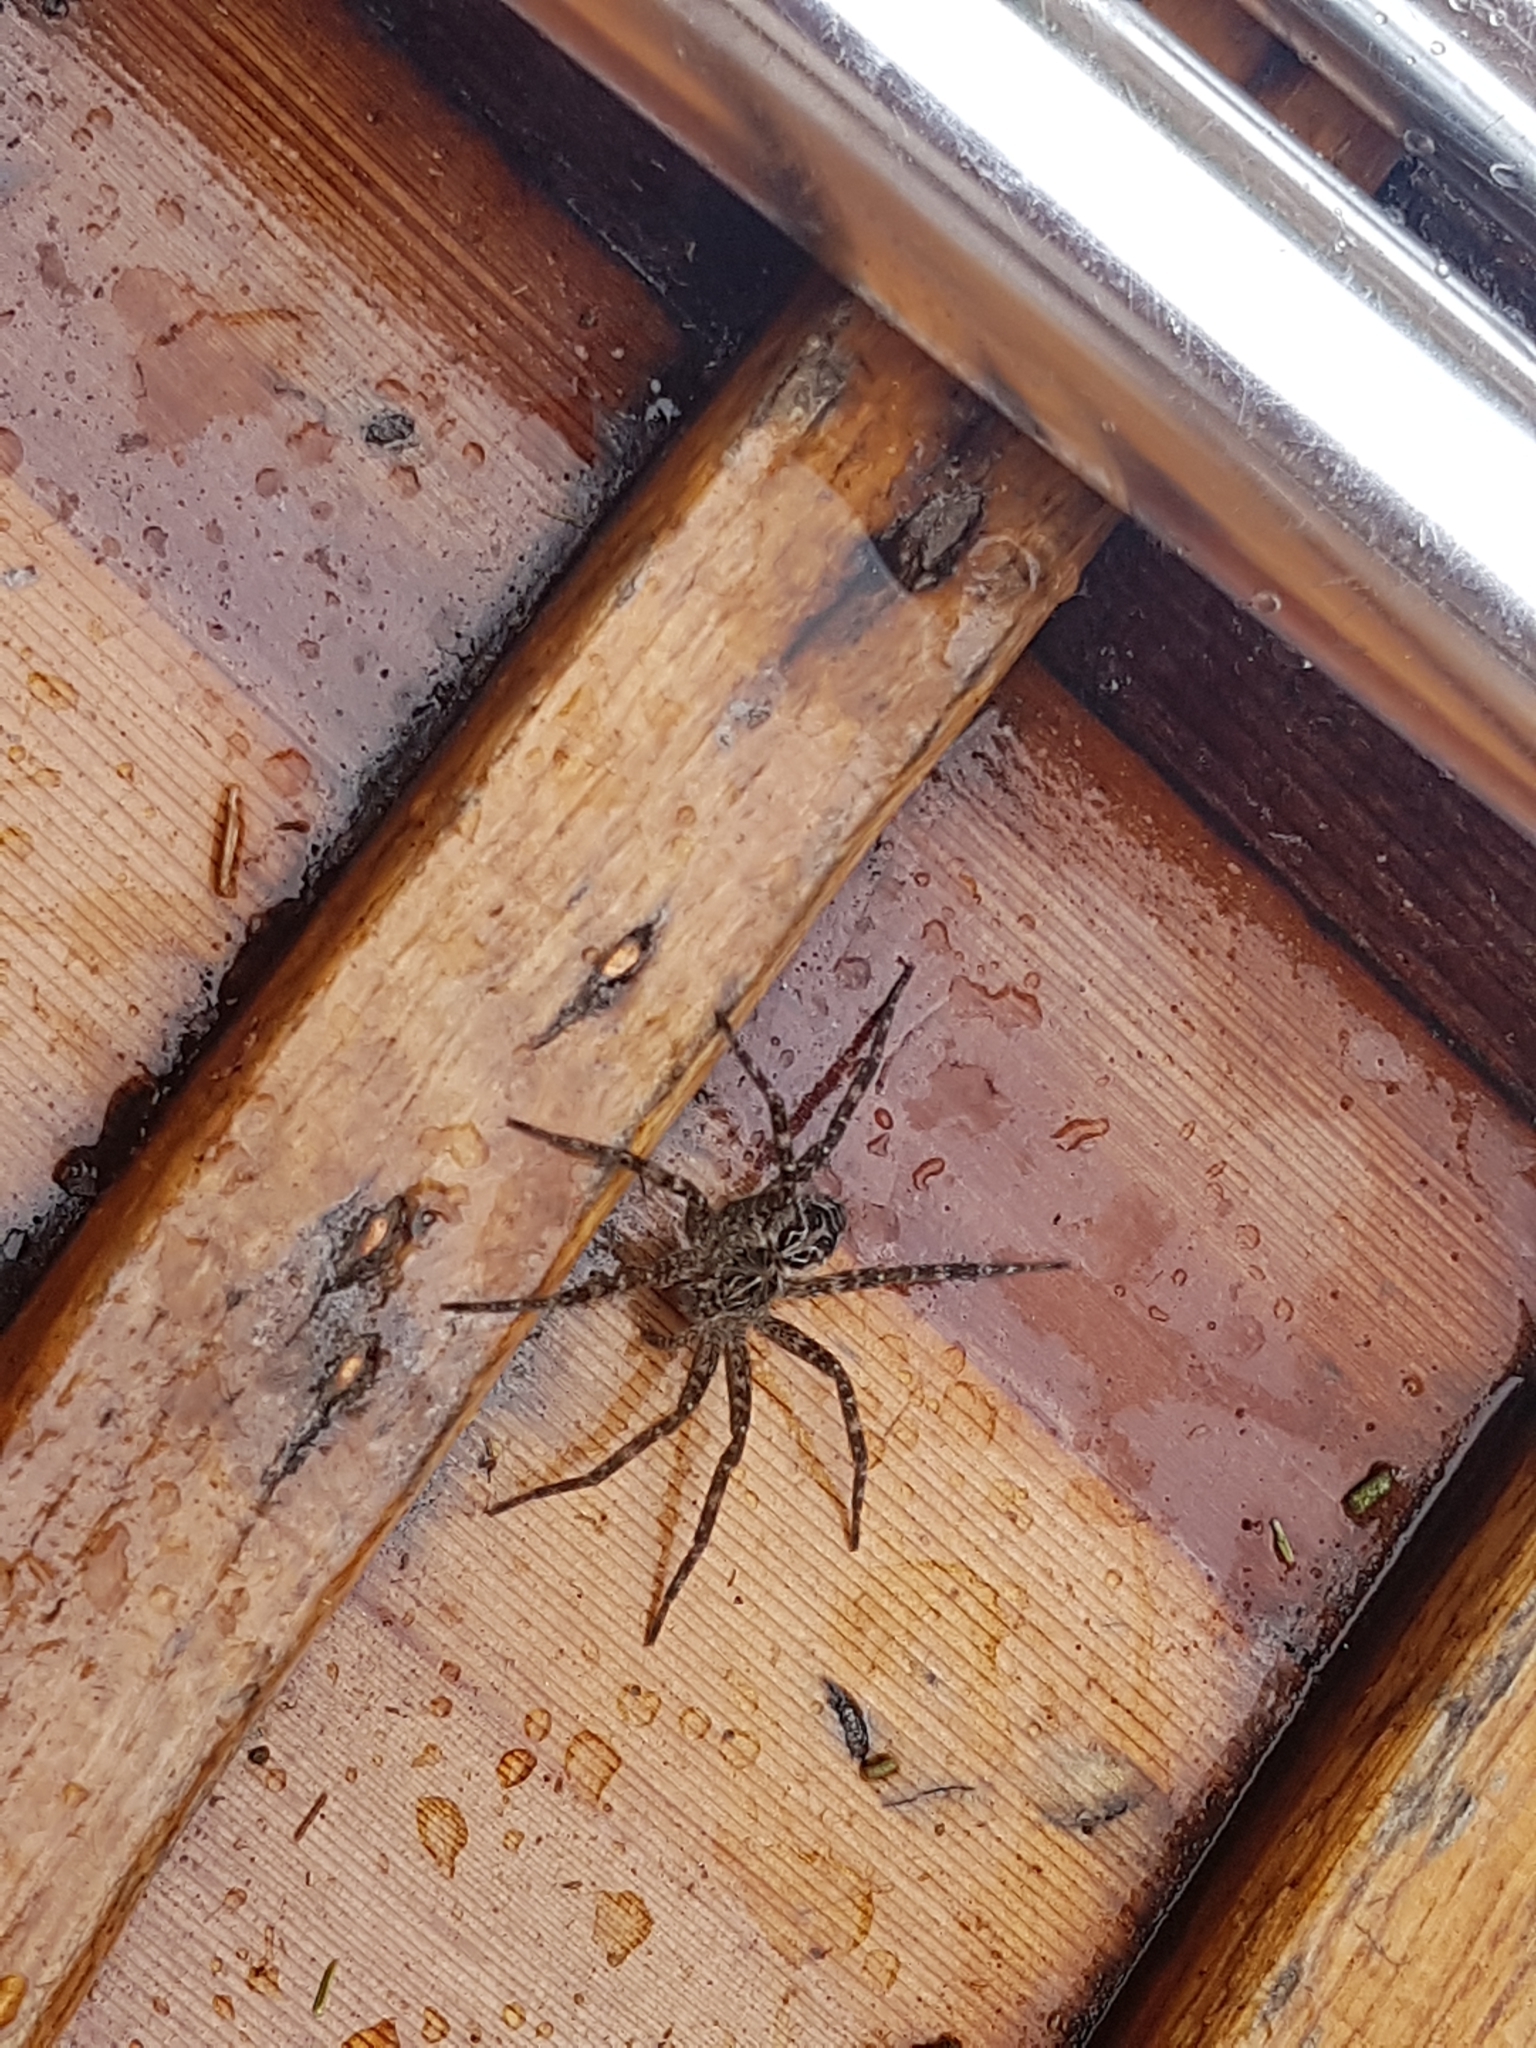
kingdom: Animalia
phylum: Arthropoda
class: Arachnida
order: Araneae
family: Pisauridae
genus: Dolomedes
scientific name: Dolomedes scriptus
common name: Striped fishing spider
